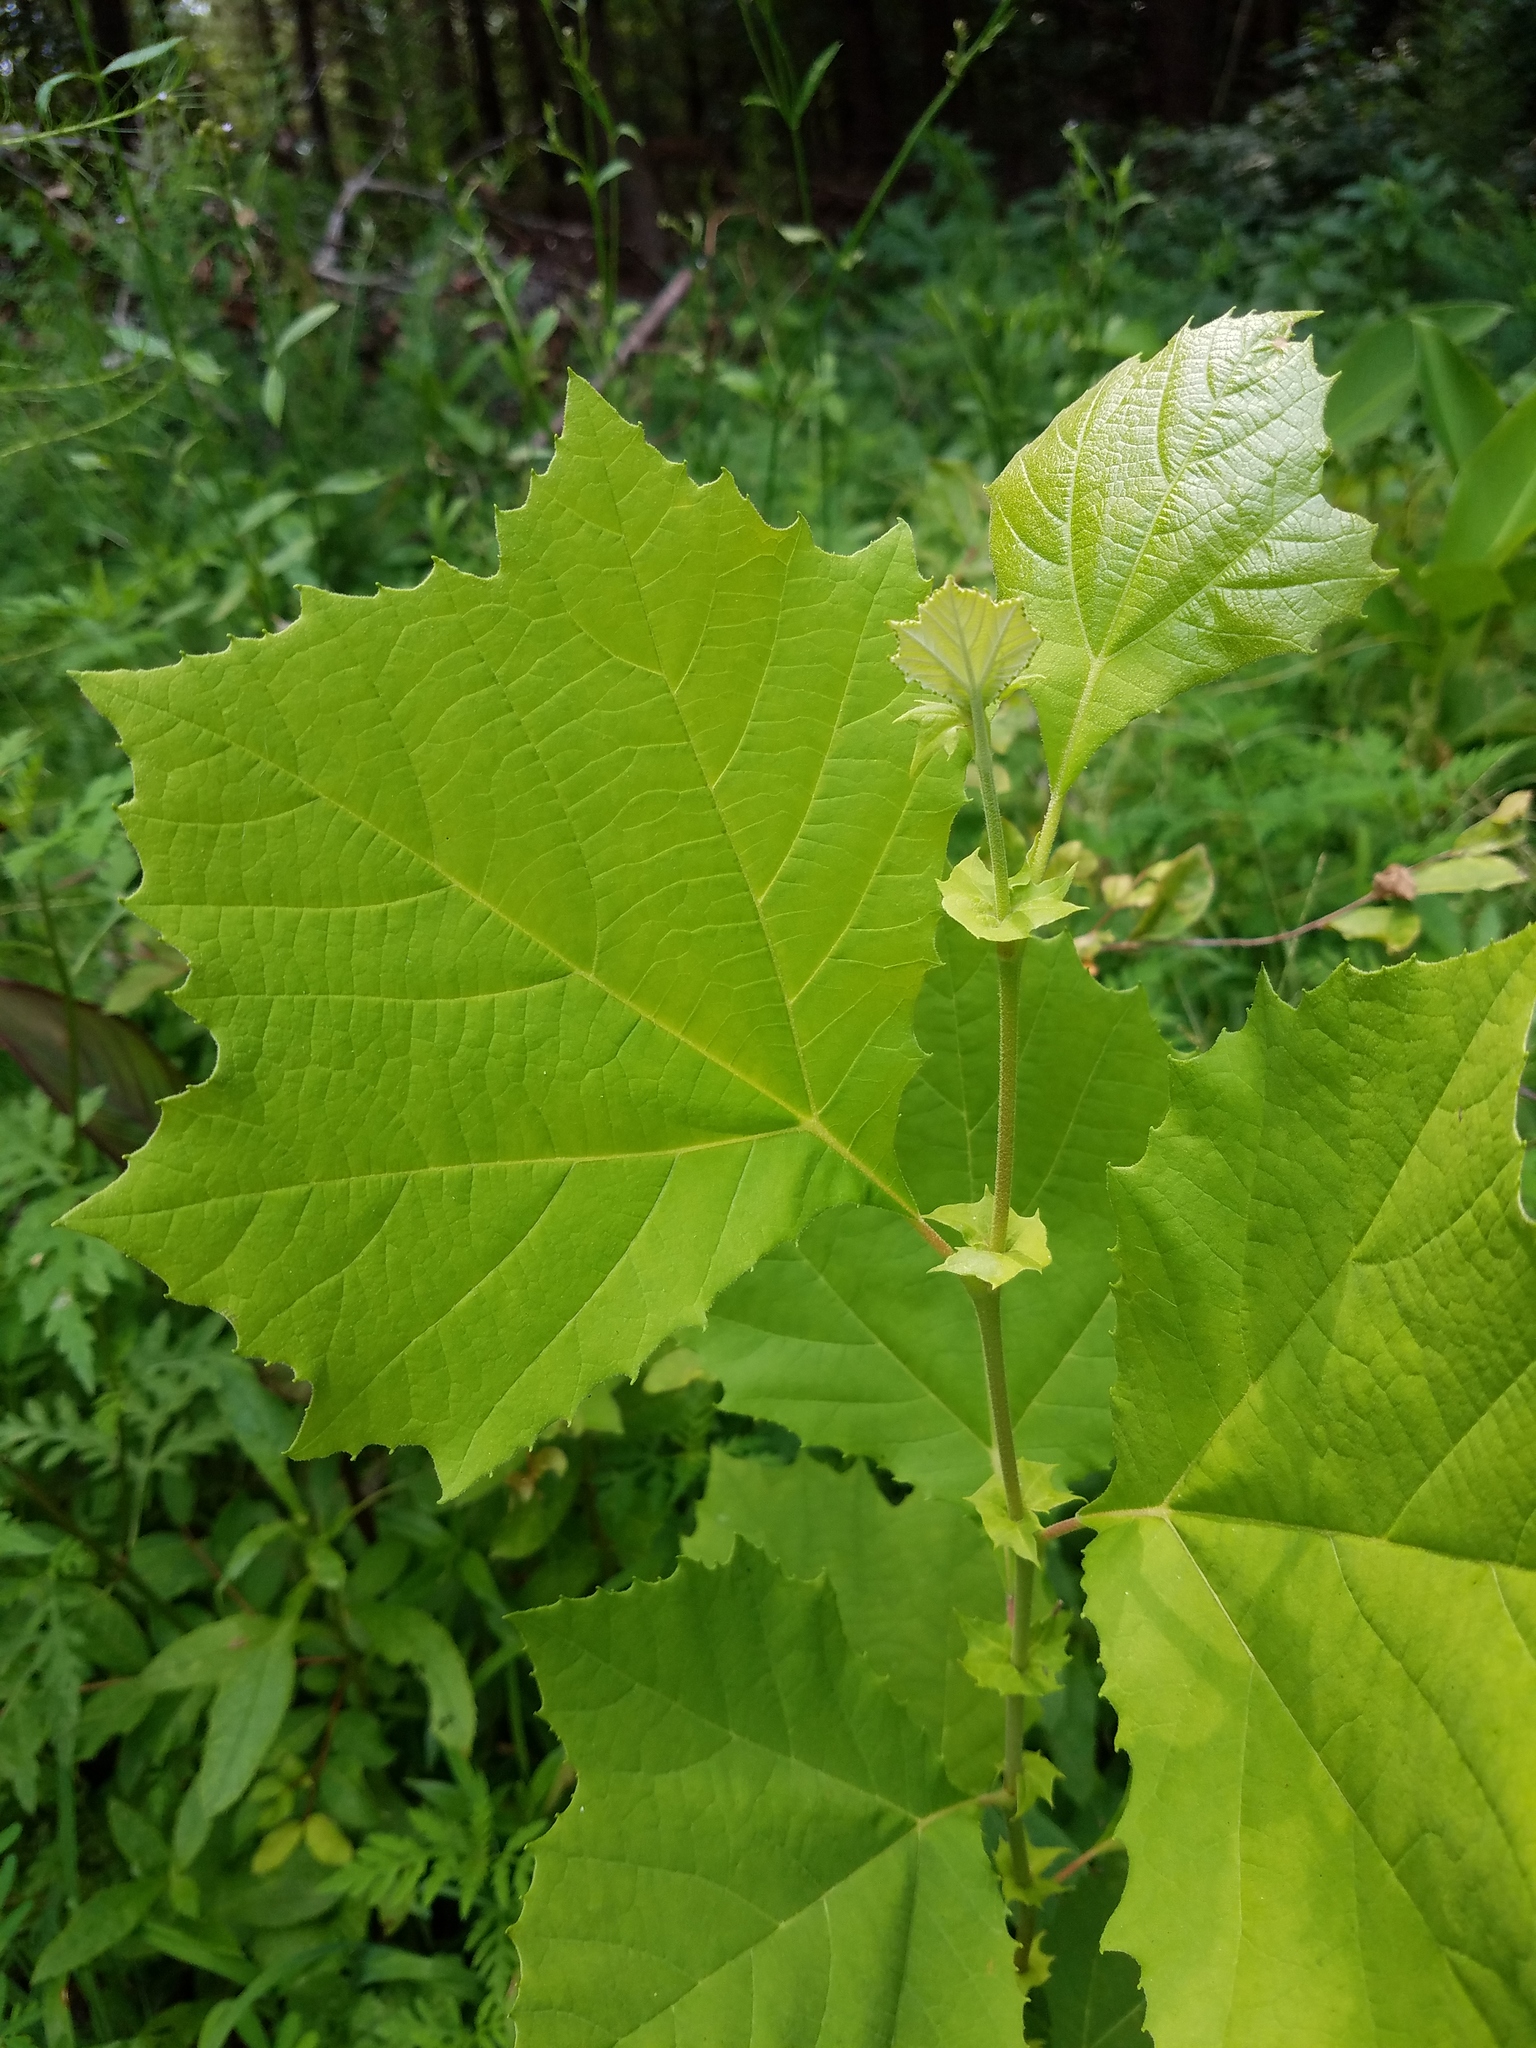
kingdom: Plantae
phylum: Tracheophyta
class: Magnoliopsida
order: Proteales
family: Platanaceae
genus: Platanus
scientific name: Platanus occidentalis
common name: American sycamore
